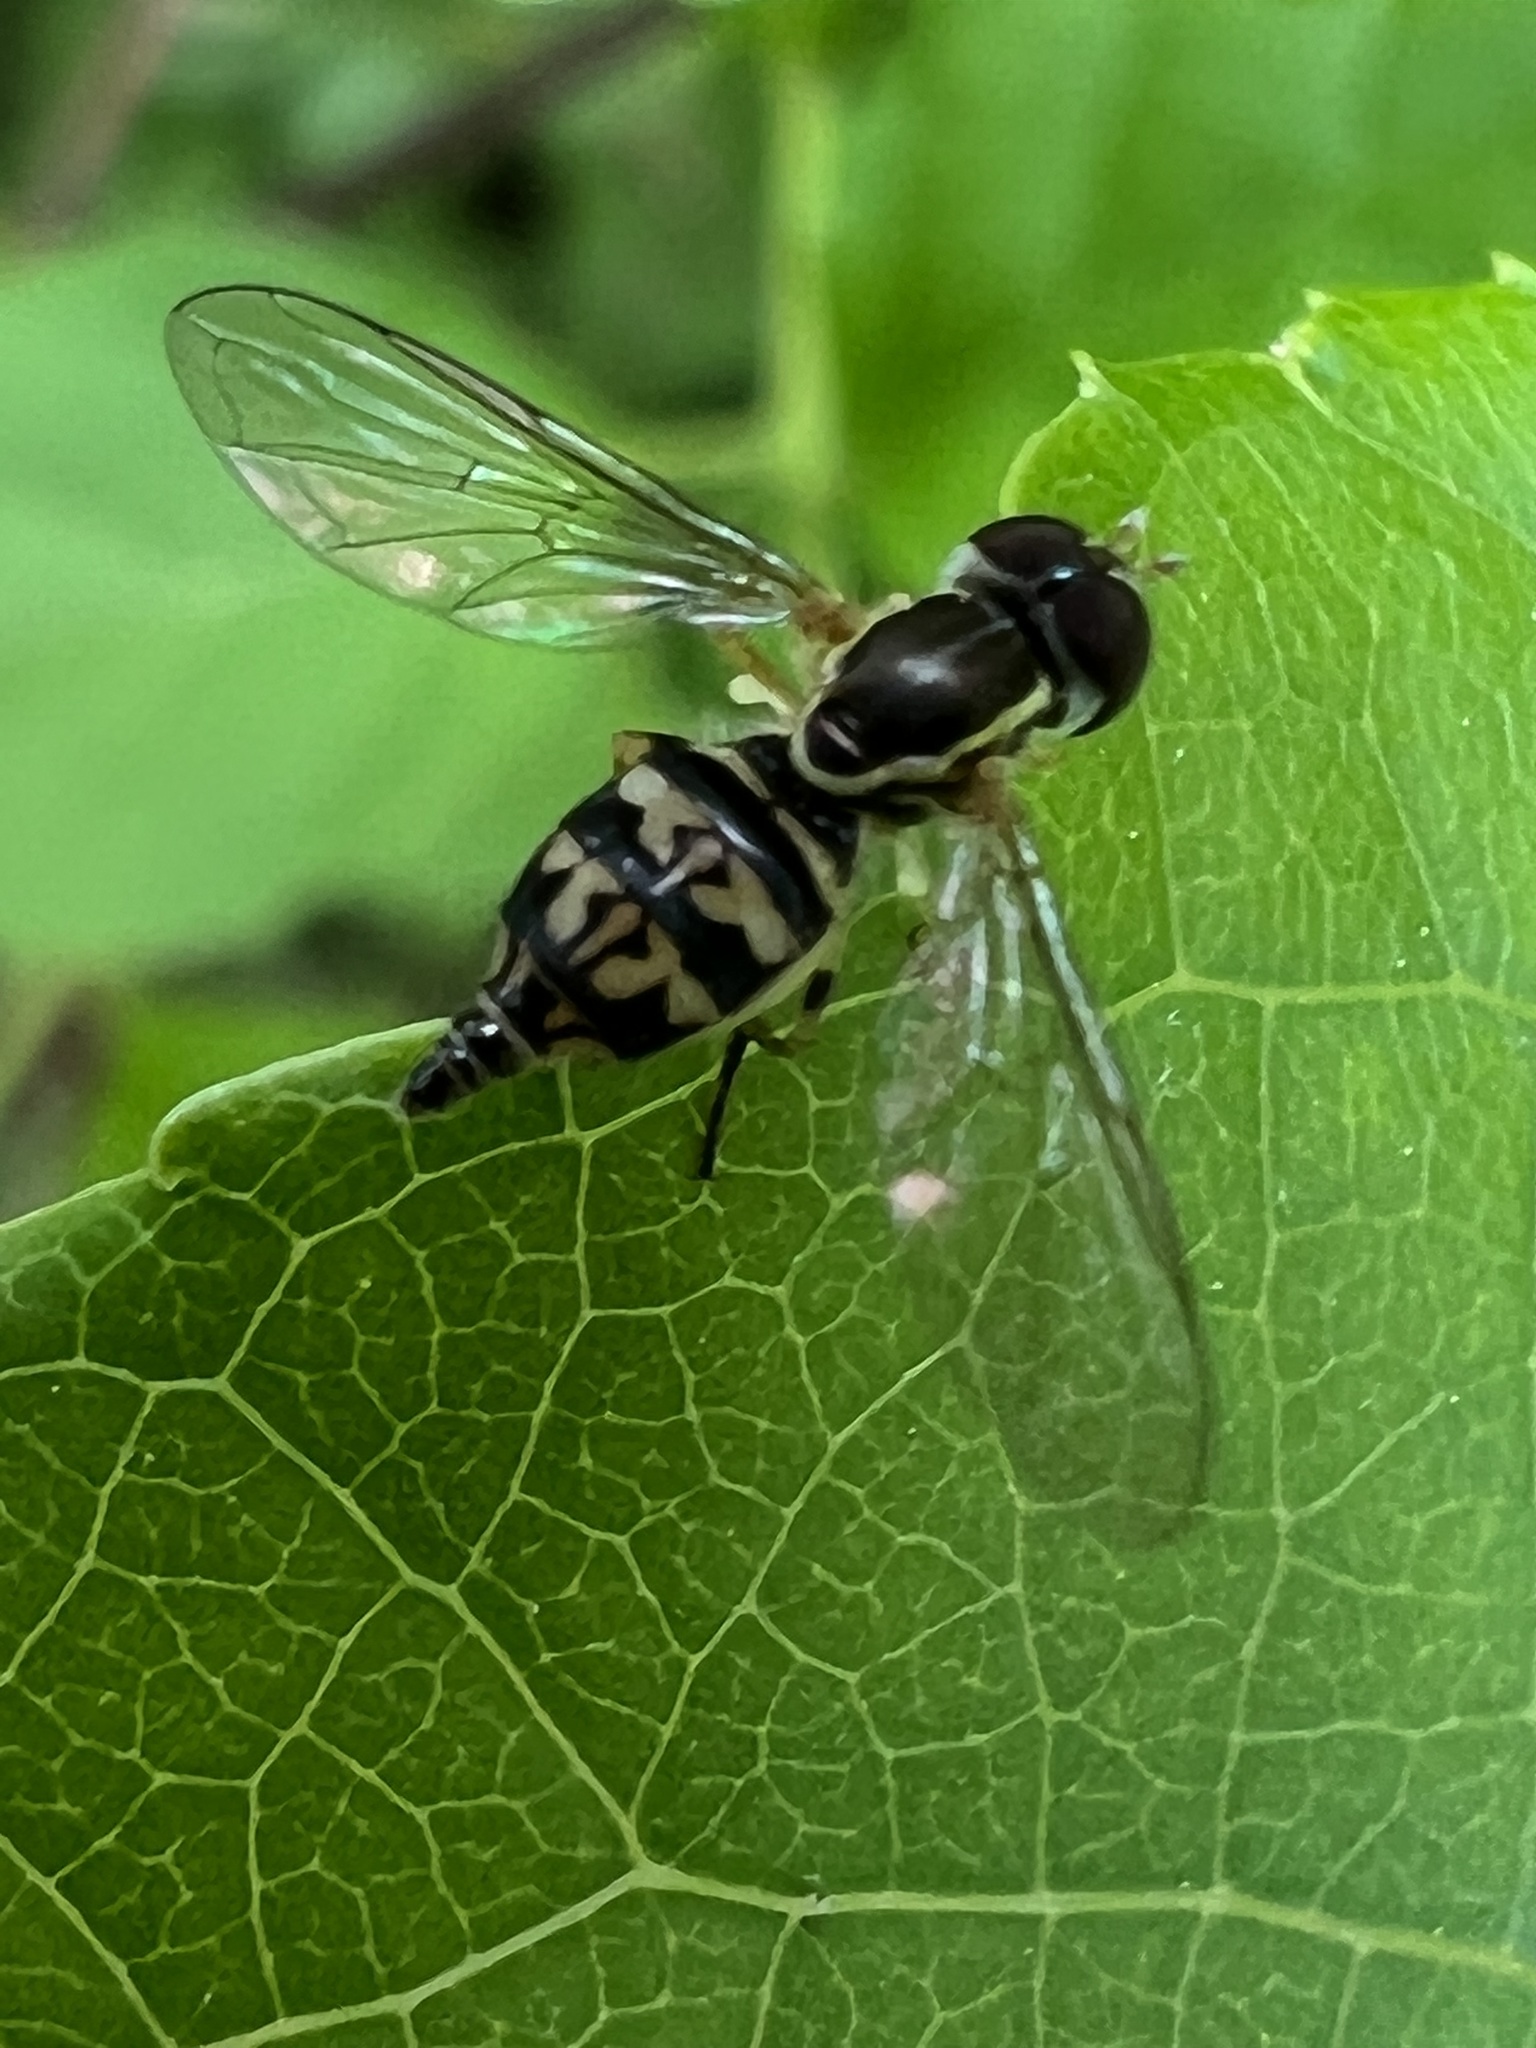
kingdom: Animalia
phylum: Arthropoda
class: Insecta
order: Diptera
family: Syrphidae
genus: Toxomerus
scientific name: Toxomerus geminatus
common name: Eastern calligrapher
